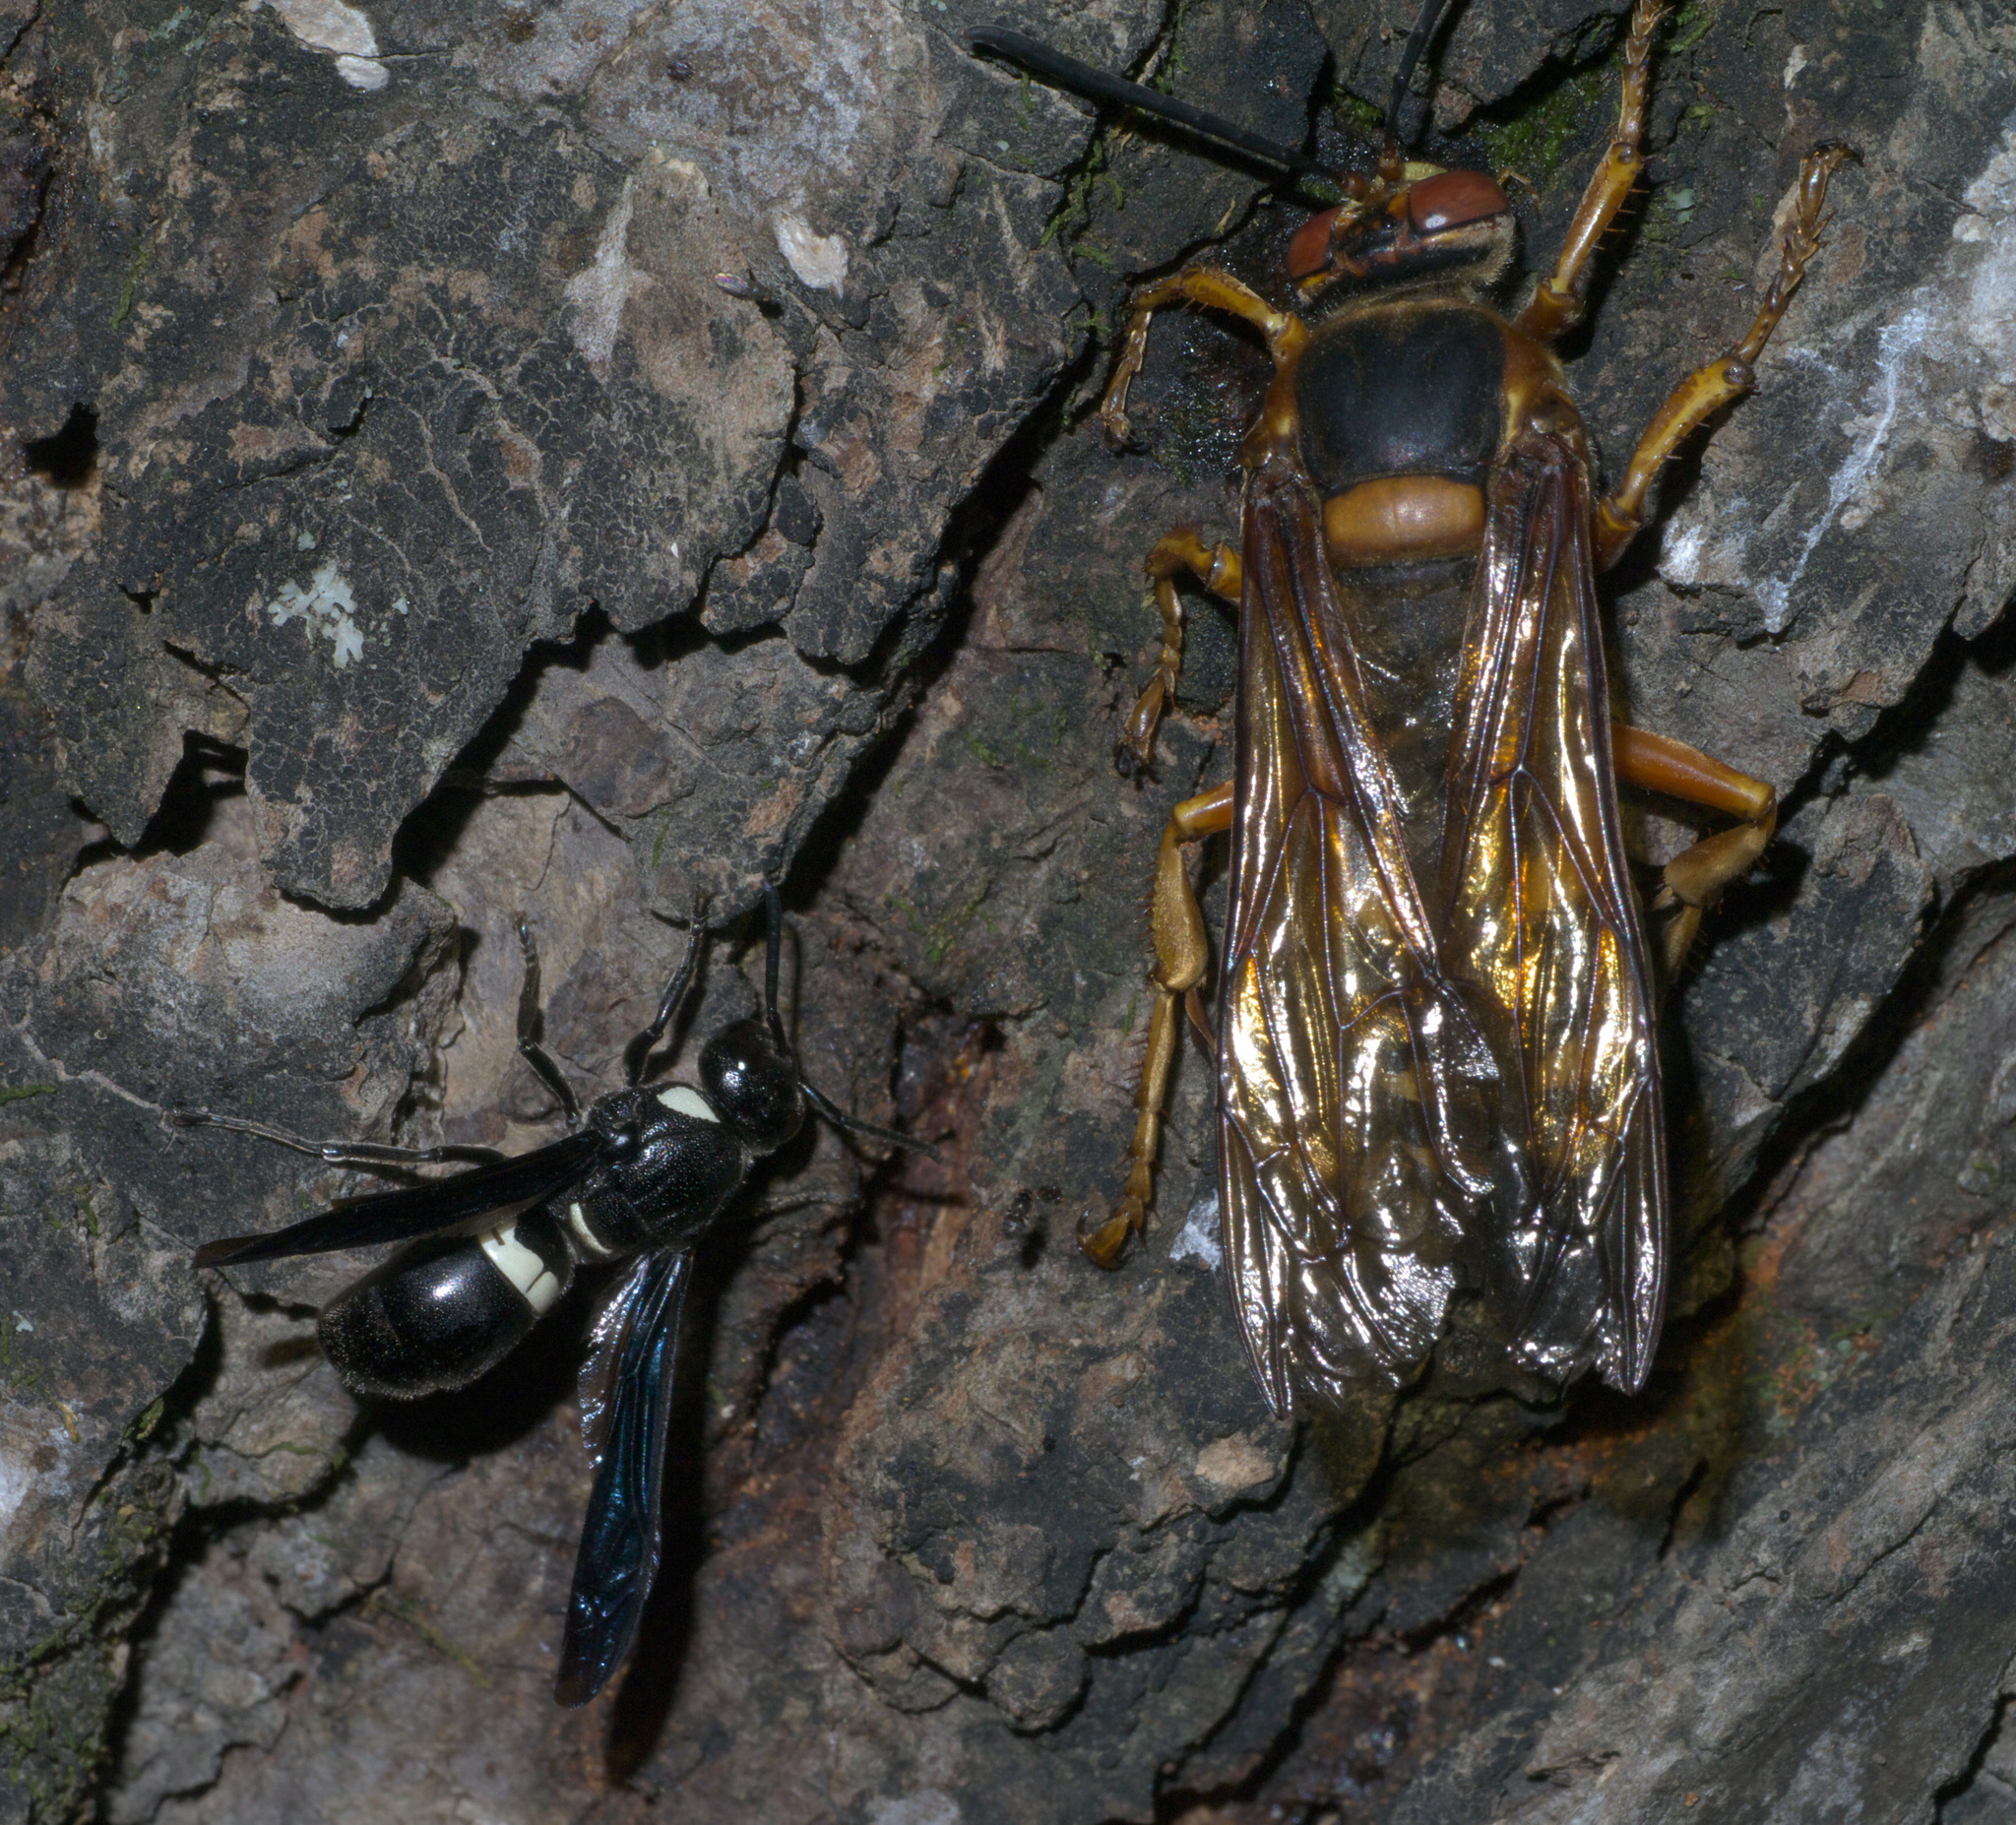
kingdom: Animalia
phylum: Arthropoda
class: Insecta
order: Hymenoptera
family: Eumenidae
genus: Monobia
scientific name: Monobia quadridens
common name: Four-toothed mason wasp
